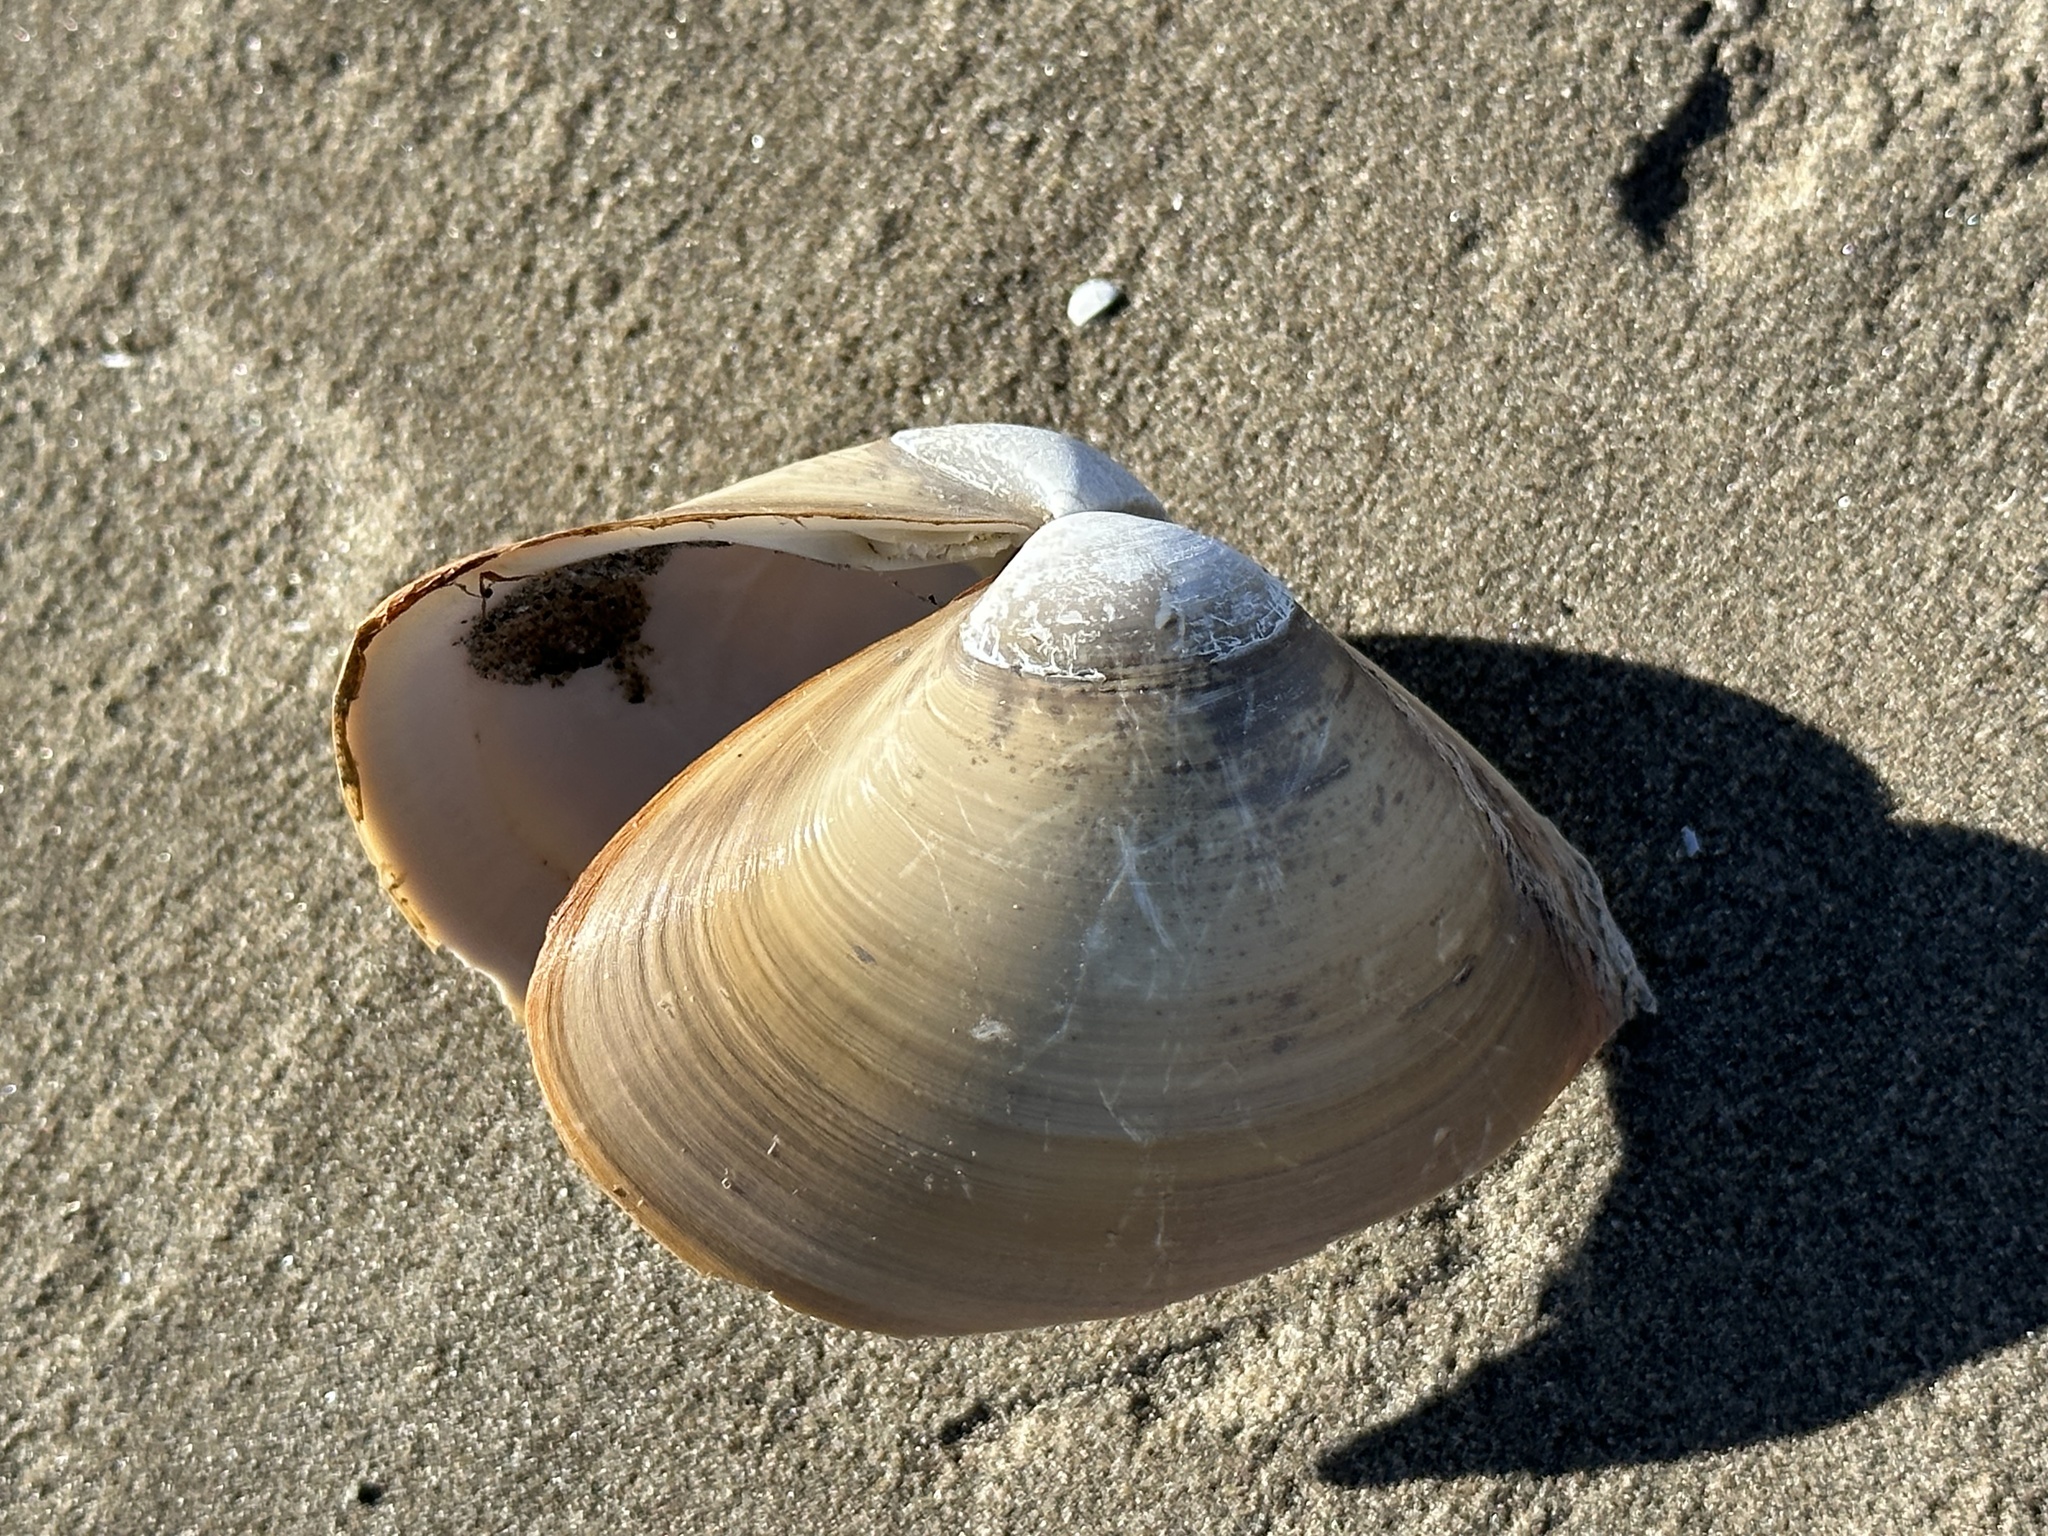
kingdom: Animalia
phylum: Mollusca
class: Bivalvia
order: Venerida
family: Mactridae
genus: Spisula
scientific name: Spisula solidissima
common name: Atlantic surf clam
